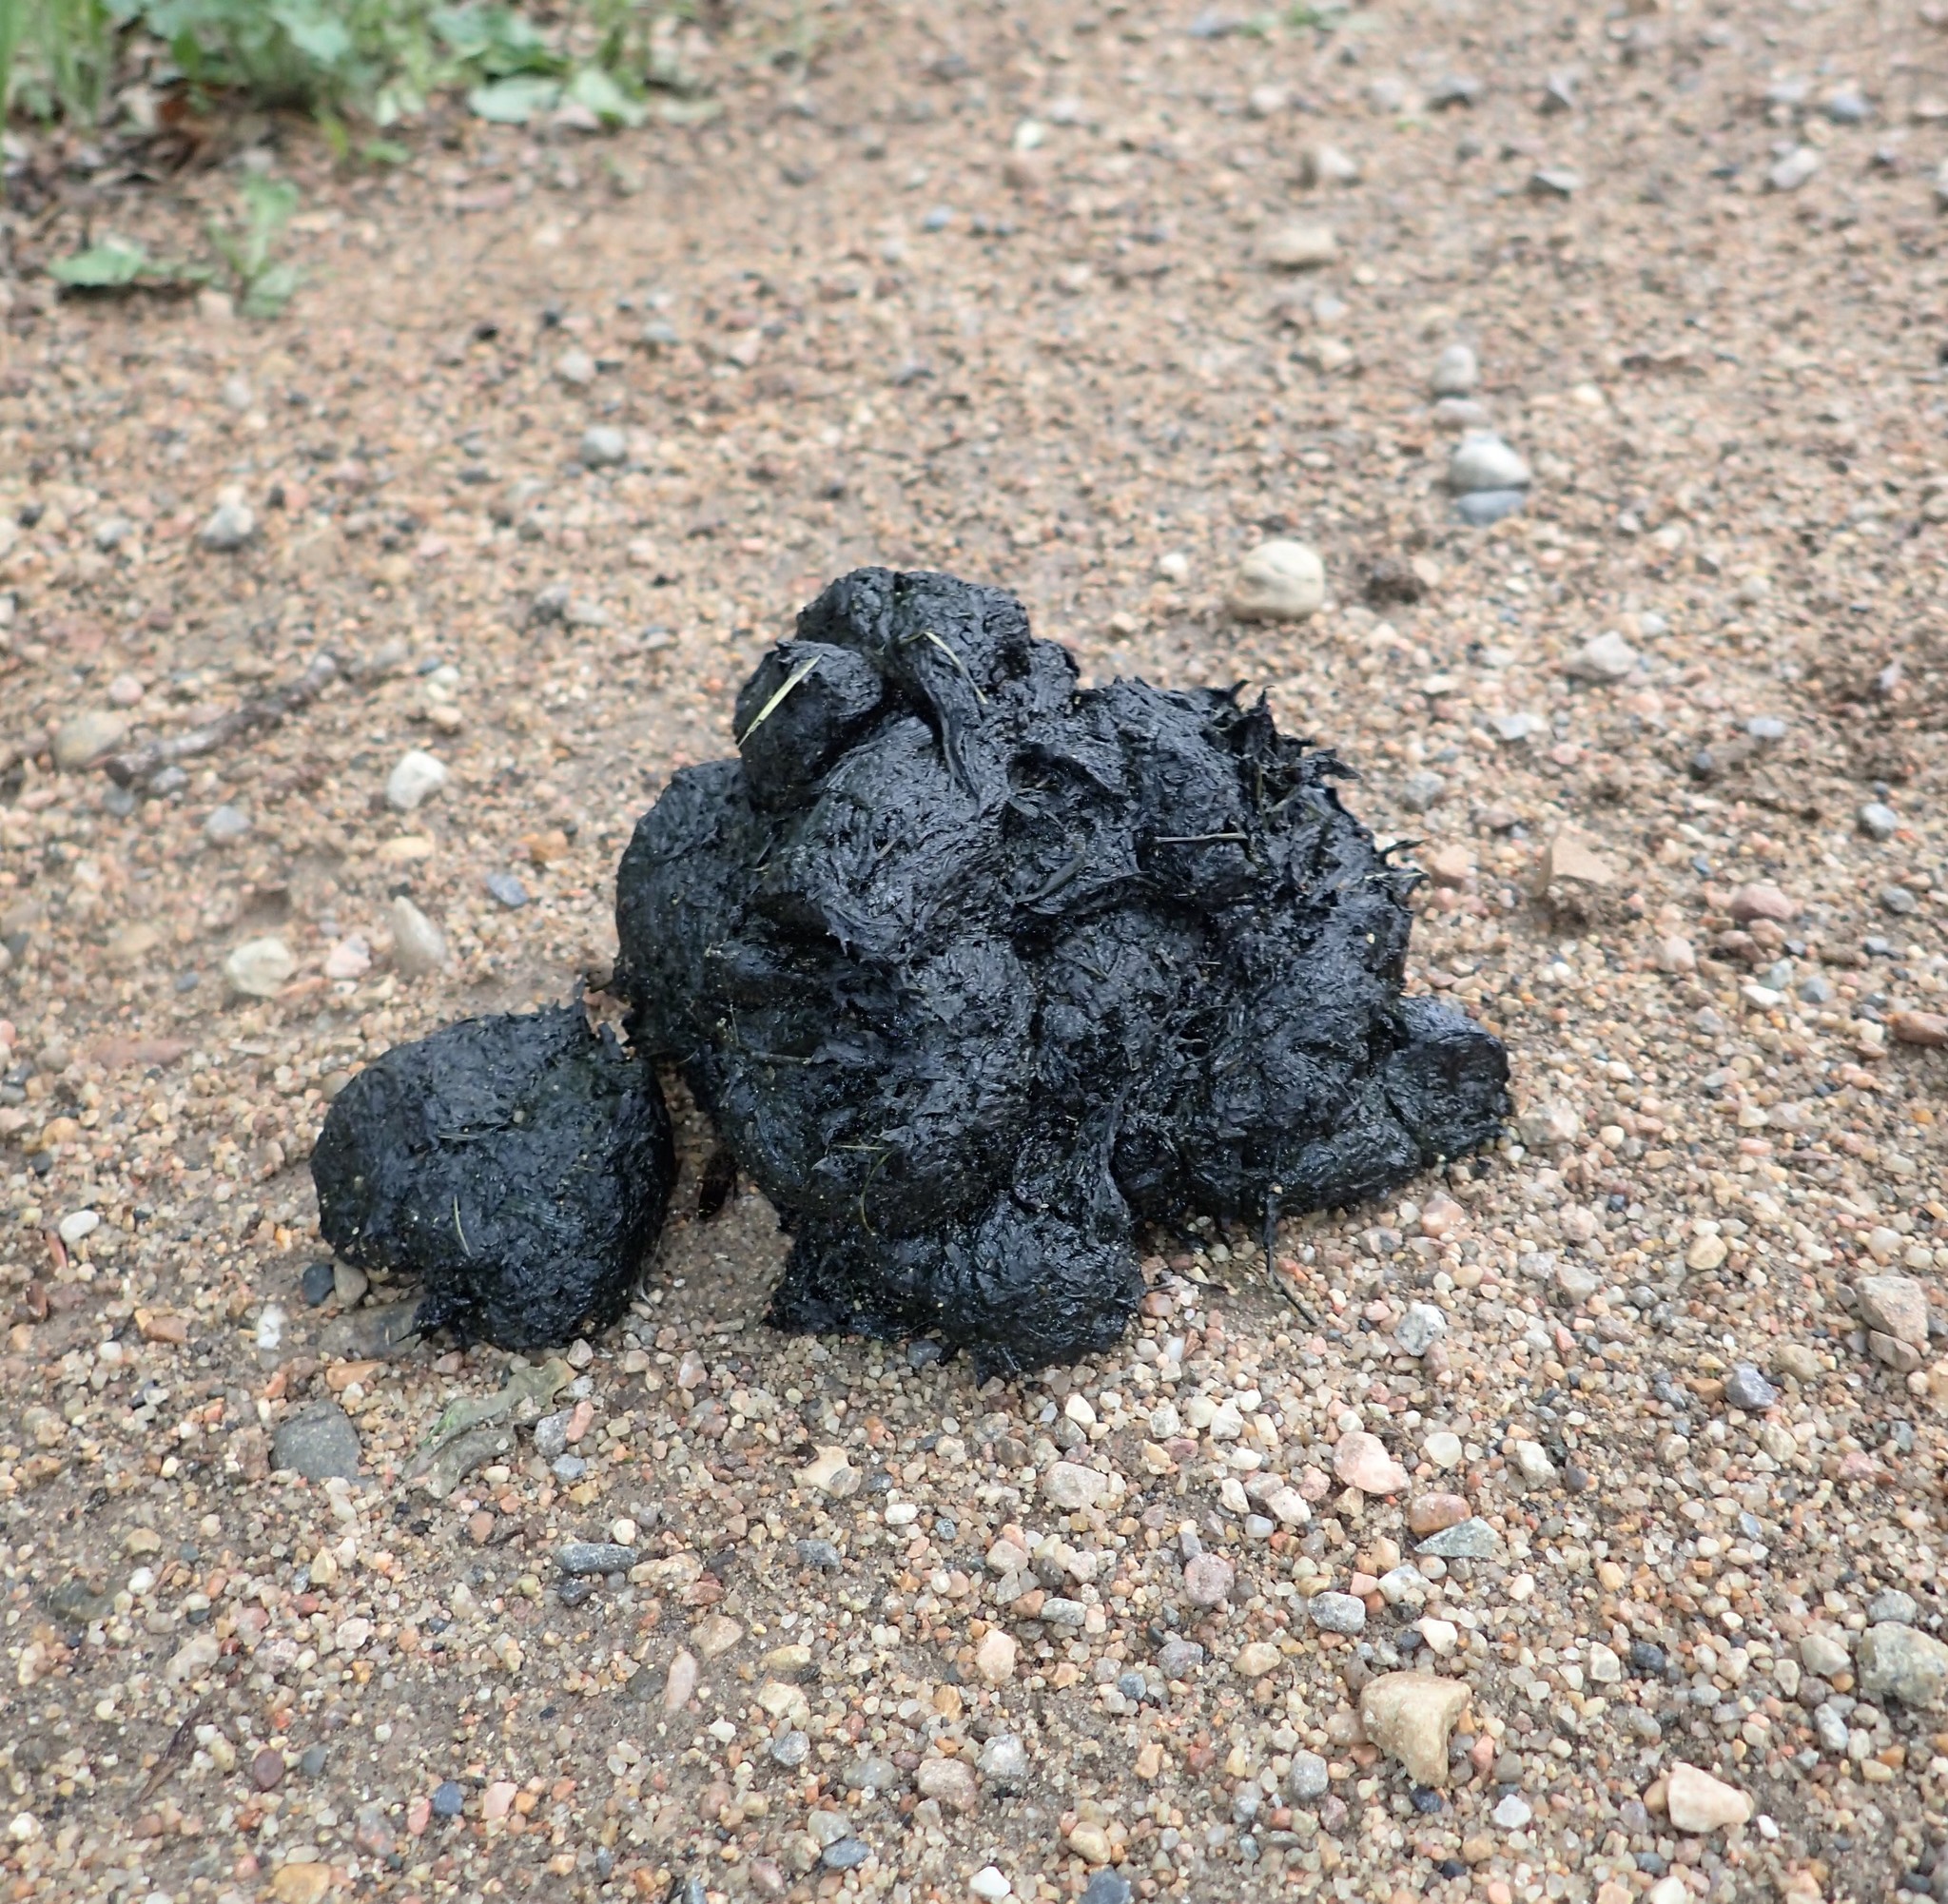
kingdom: Animalia
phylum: Chordata
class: Mammalia
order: Carnivora
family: Ursidae
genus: Ursus
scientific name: Ursus americanus
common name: American black bear
